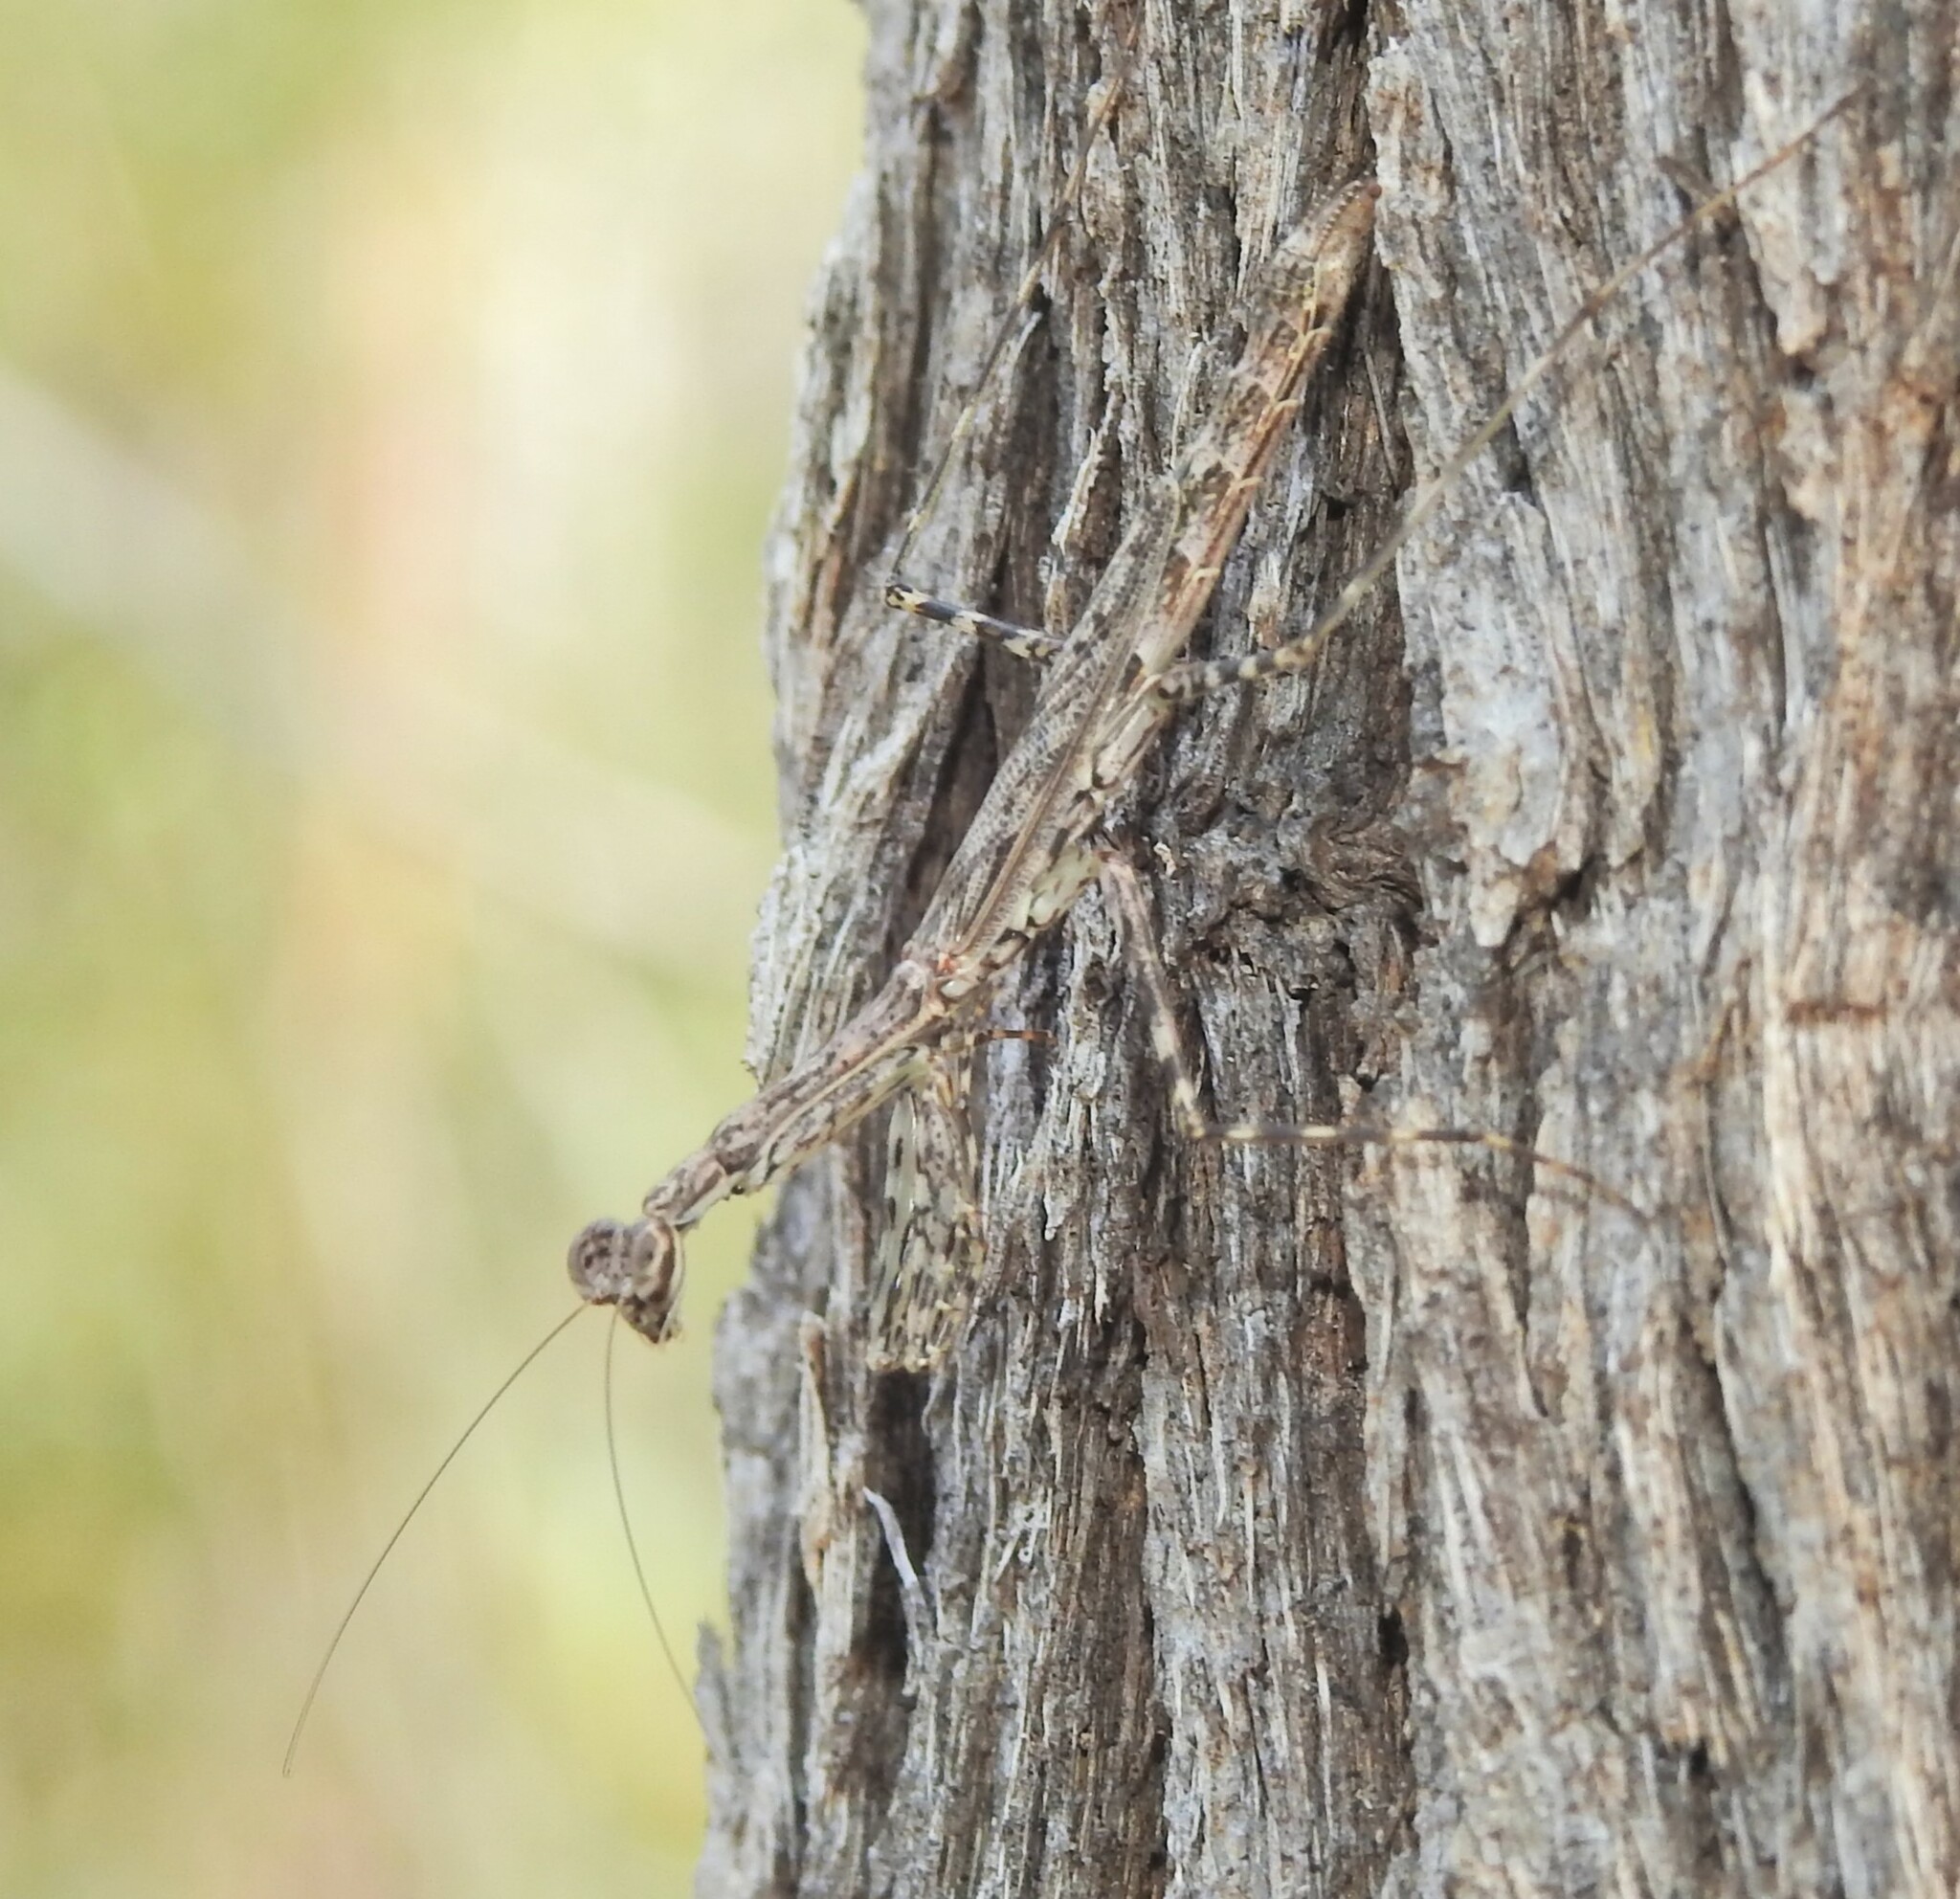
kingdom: Animalia
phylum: Arthropoda
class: Insecta
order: Mantodea
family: Nanomantidae
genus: Ciulfina
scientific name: Ciulfina baldersoni
